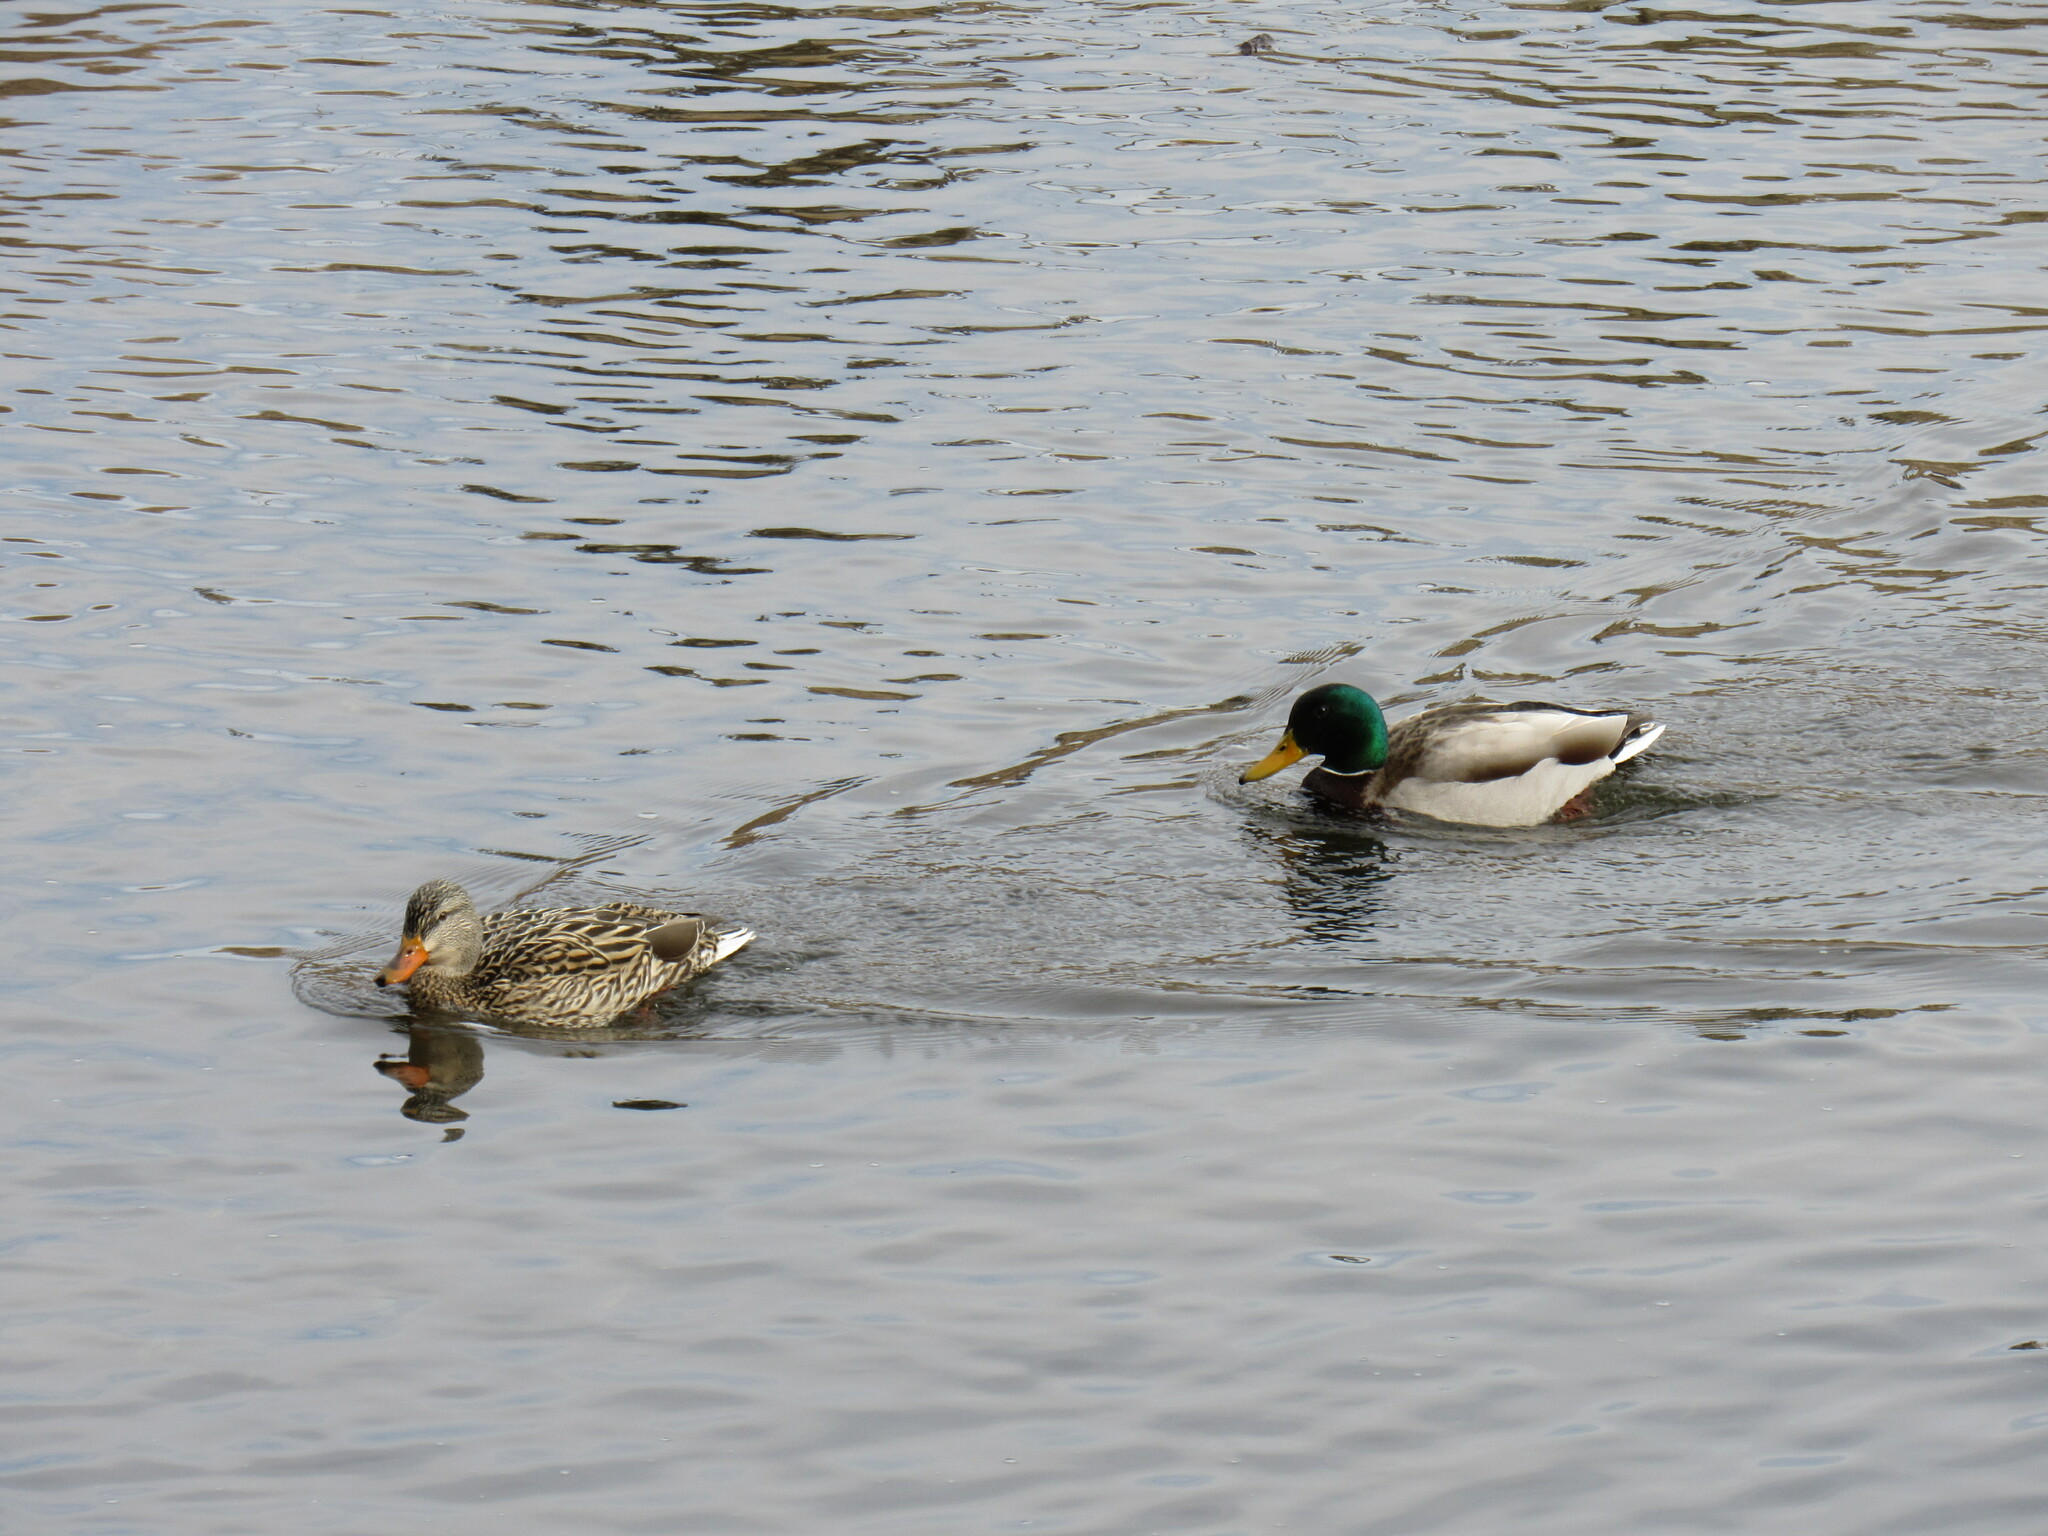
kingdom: Animalia
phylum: Chordata
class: Aves
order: Anseriformes
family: Anatidae
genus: Anas
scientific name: Anas platyrhynchos
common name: Mallard
